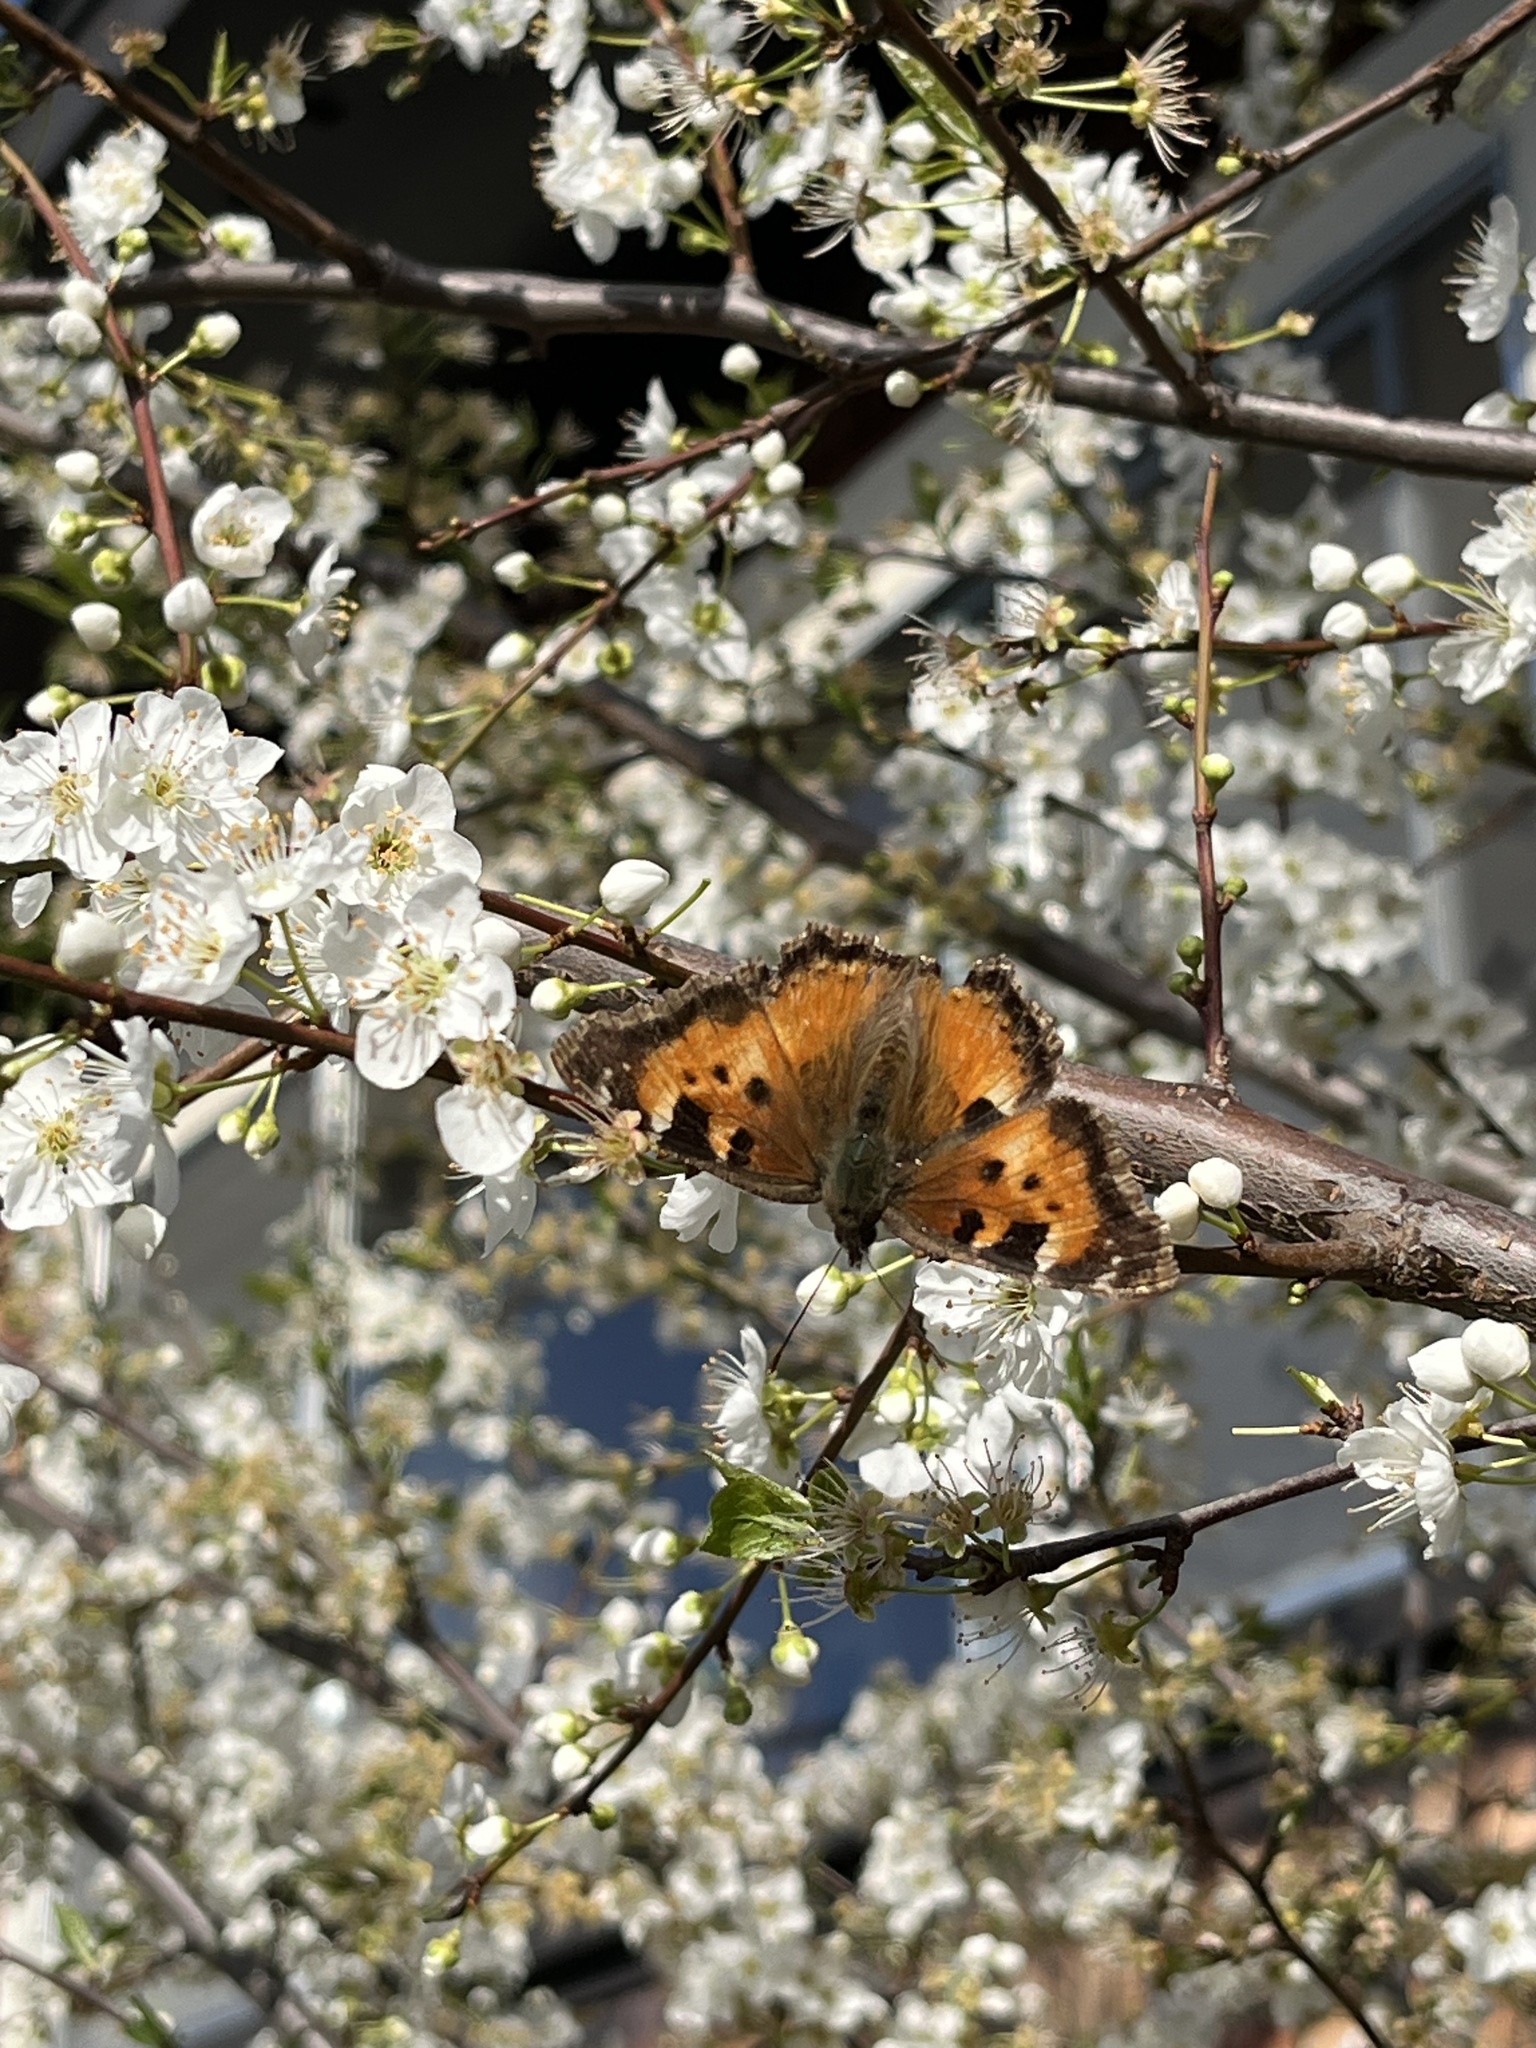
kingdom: Animalia
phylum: Arthropoda
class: Insecta
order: Lepidoptera
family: Nymphalidae
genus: Nymphalis
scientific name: Nymphalis californica
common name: California tortoiseshell
